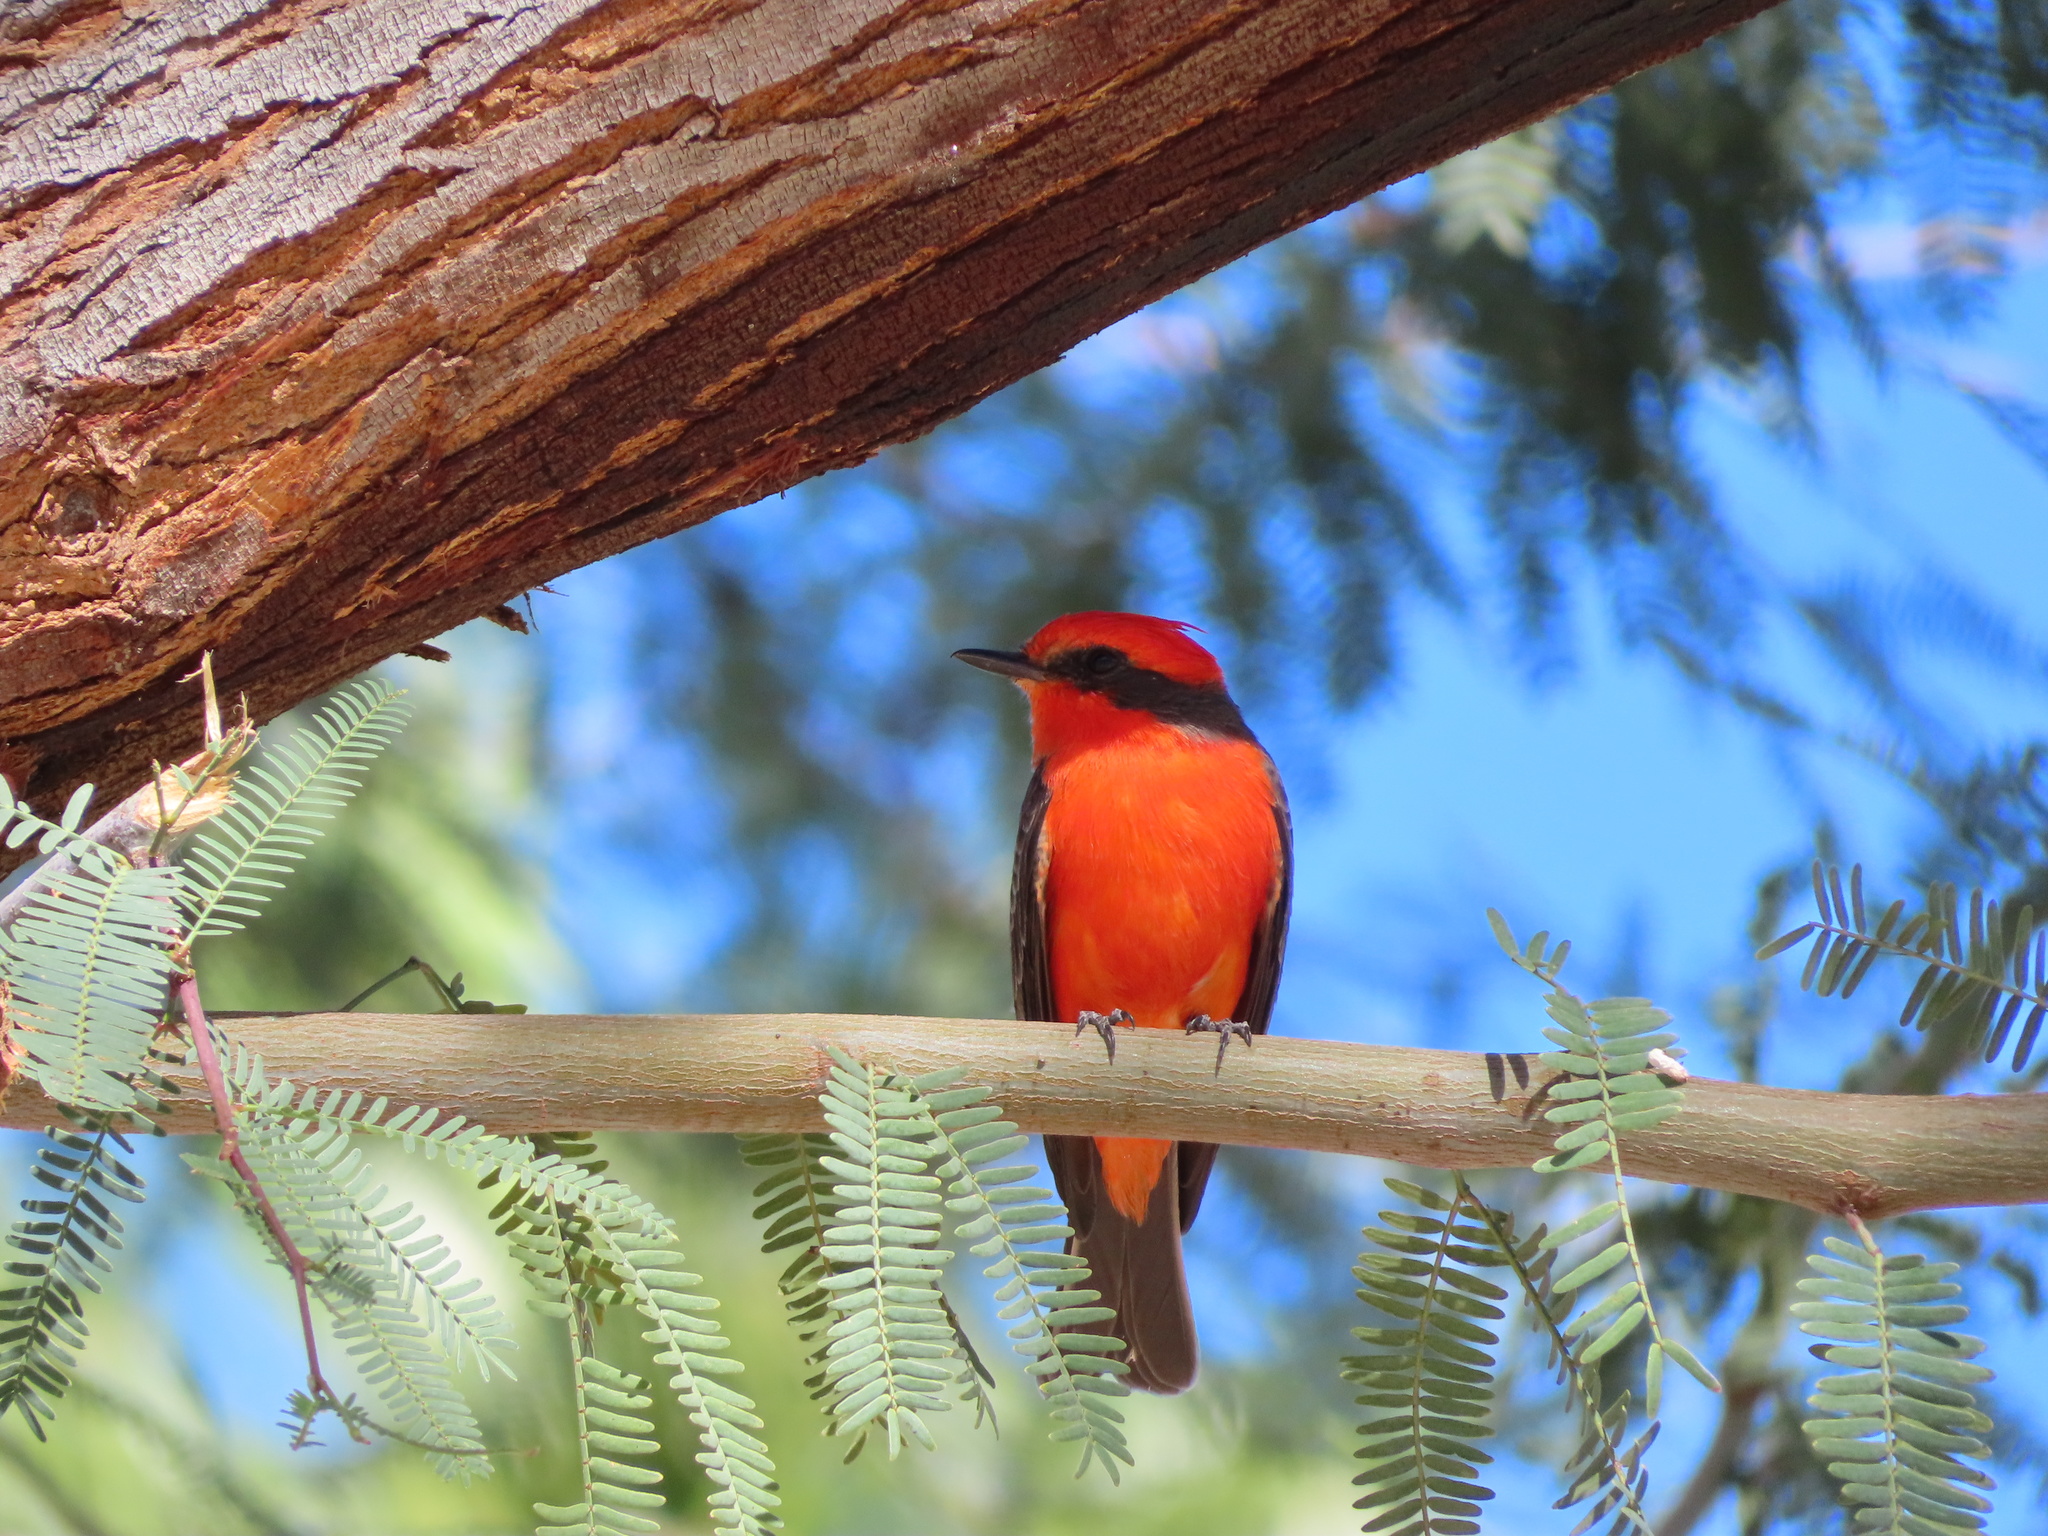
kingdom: Animalia
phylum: Chordata
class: Aves
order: Passeriformes
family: Tyrannidae
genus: Pyrocephalus
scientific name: Pyrocephalus rubinus
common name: Vermilion flycatcher
